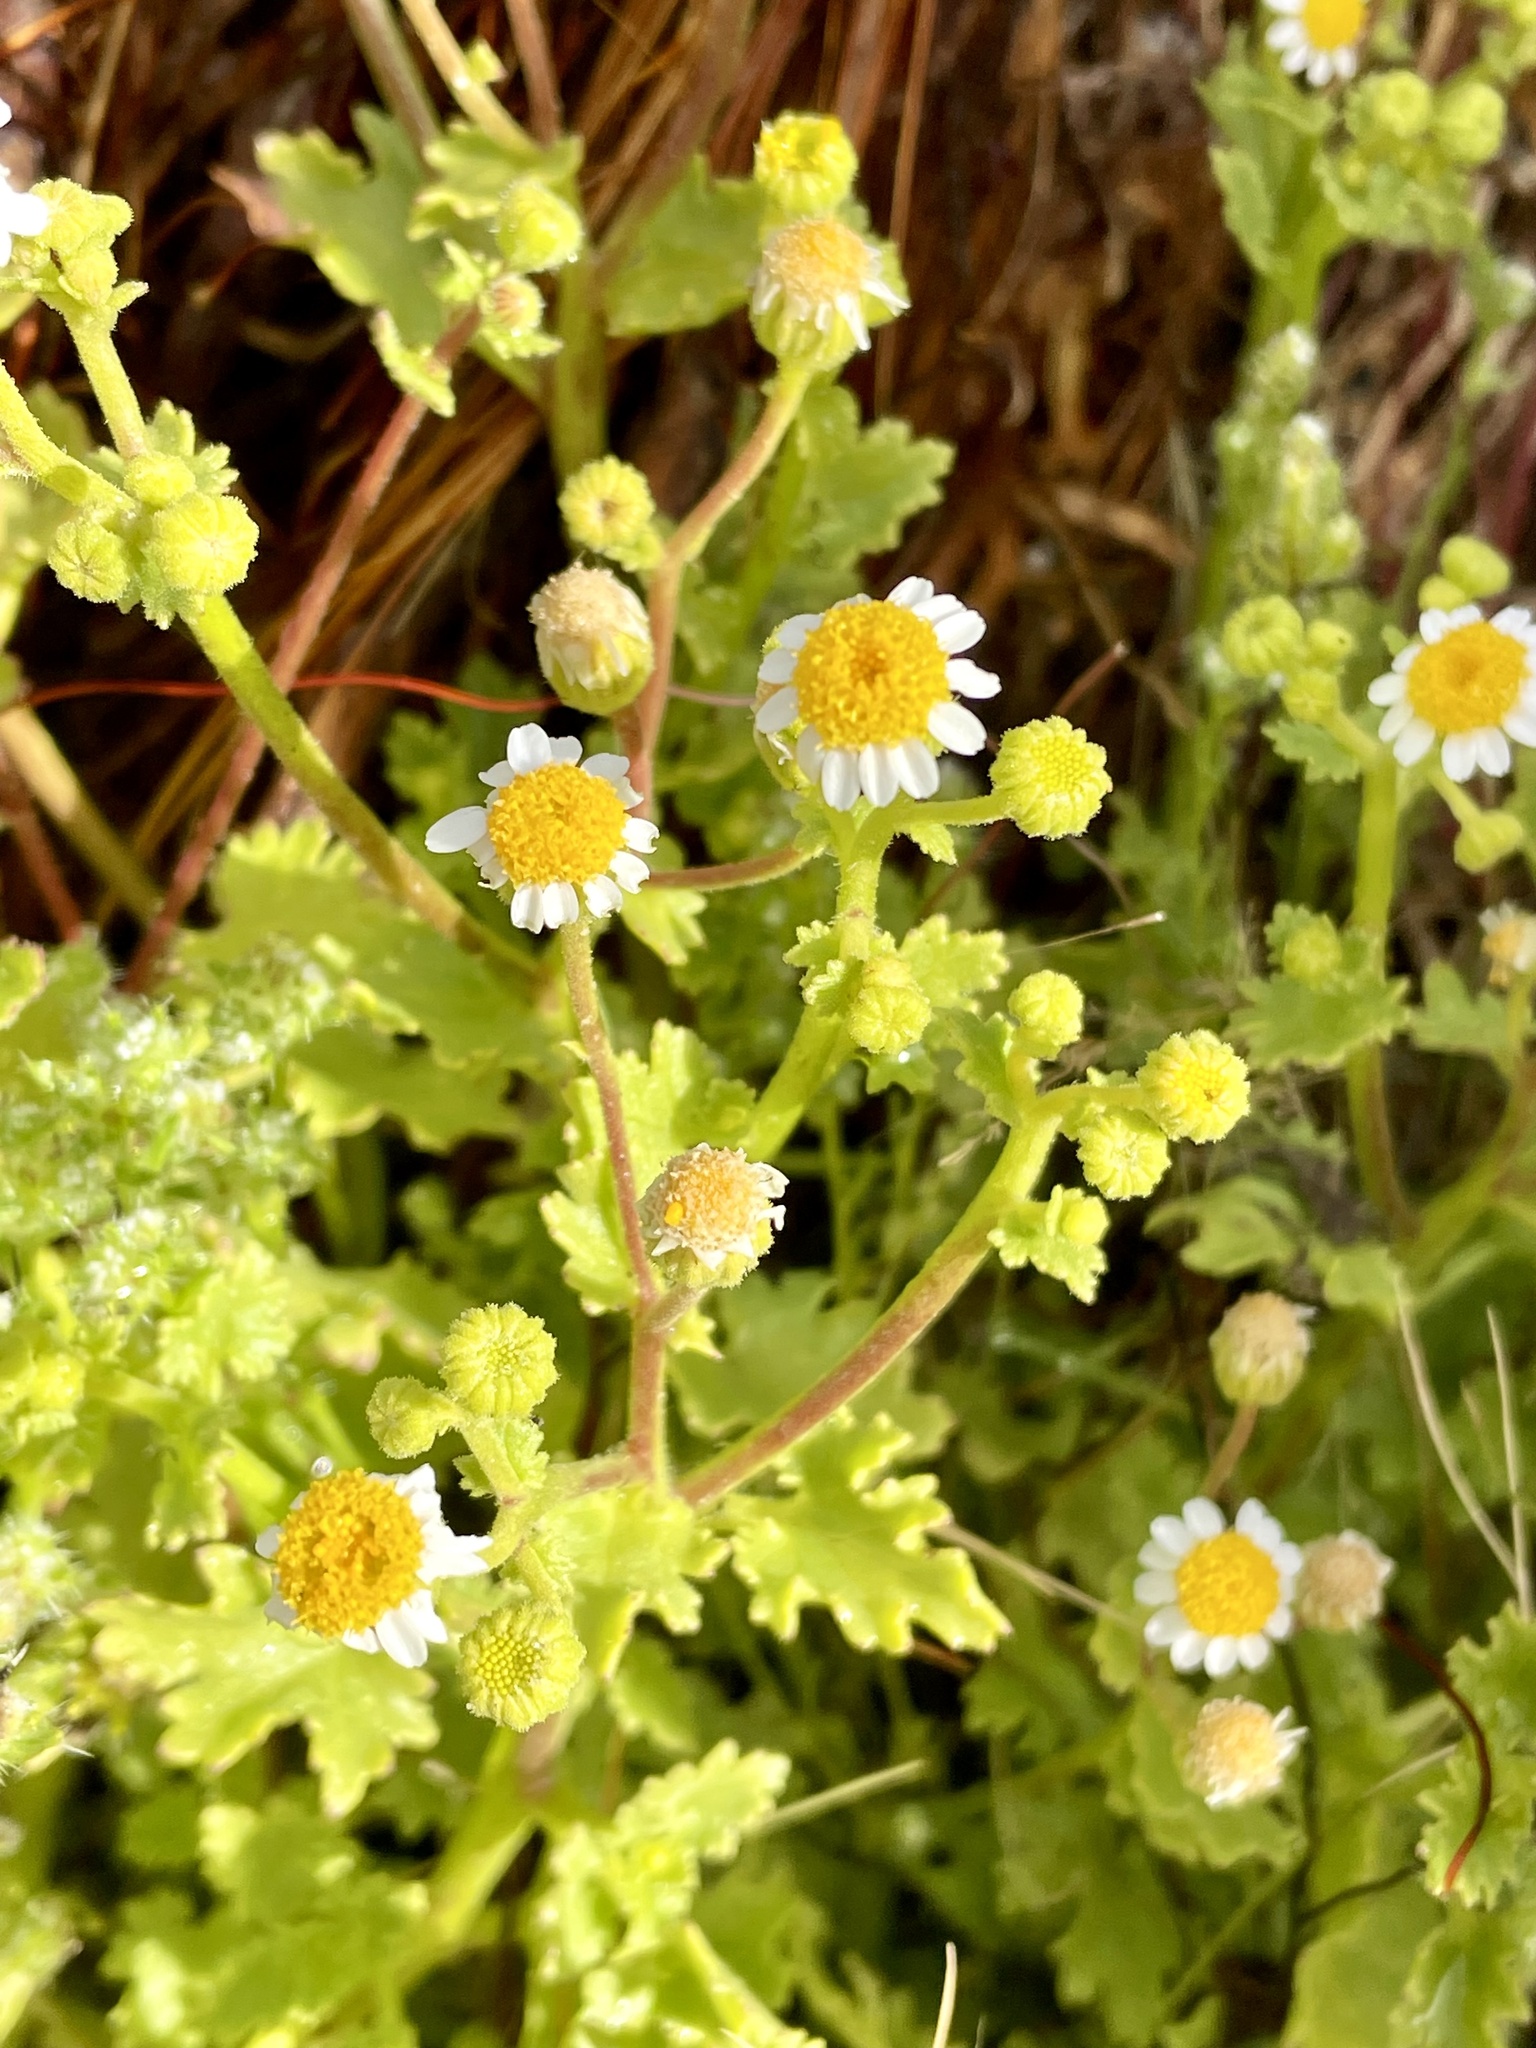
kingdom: Plantae
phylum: Tracheophyta
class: Magnoliopsida
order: Asterales
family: Asteraceae
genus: Laphamia
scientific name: Laphamia emoryi
